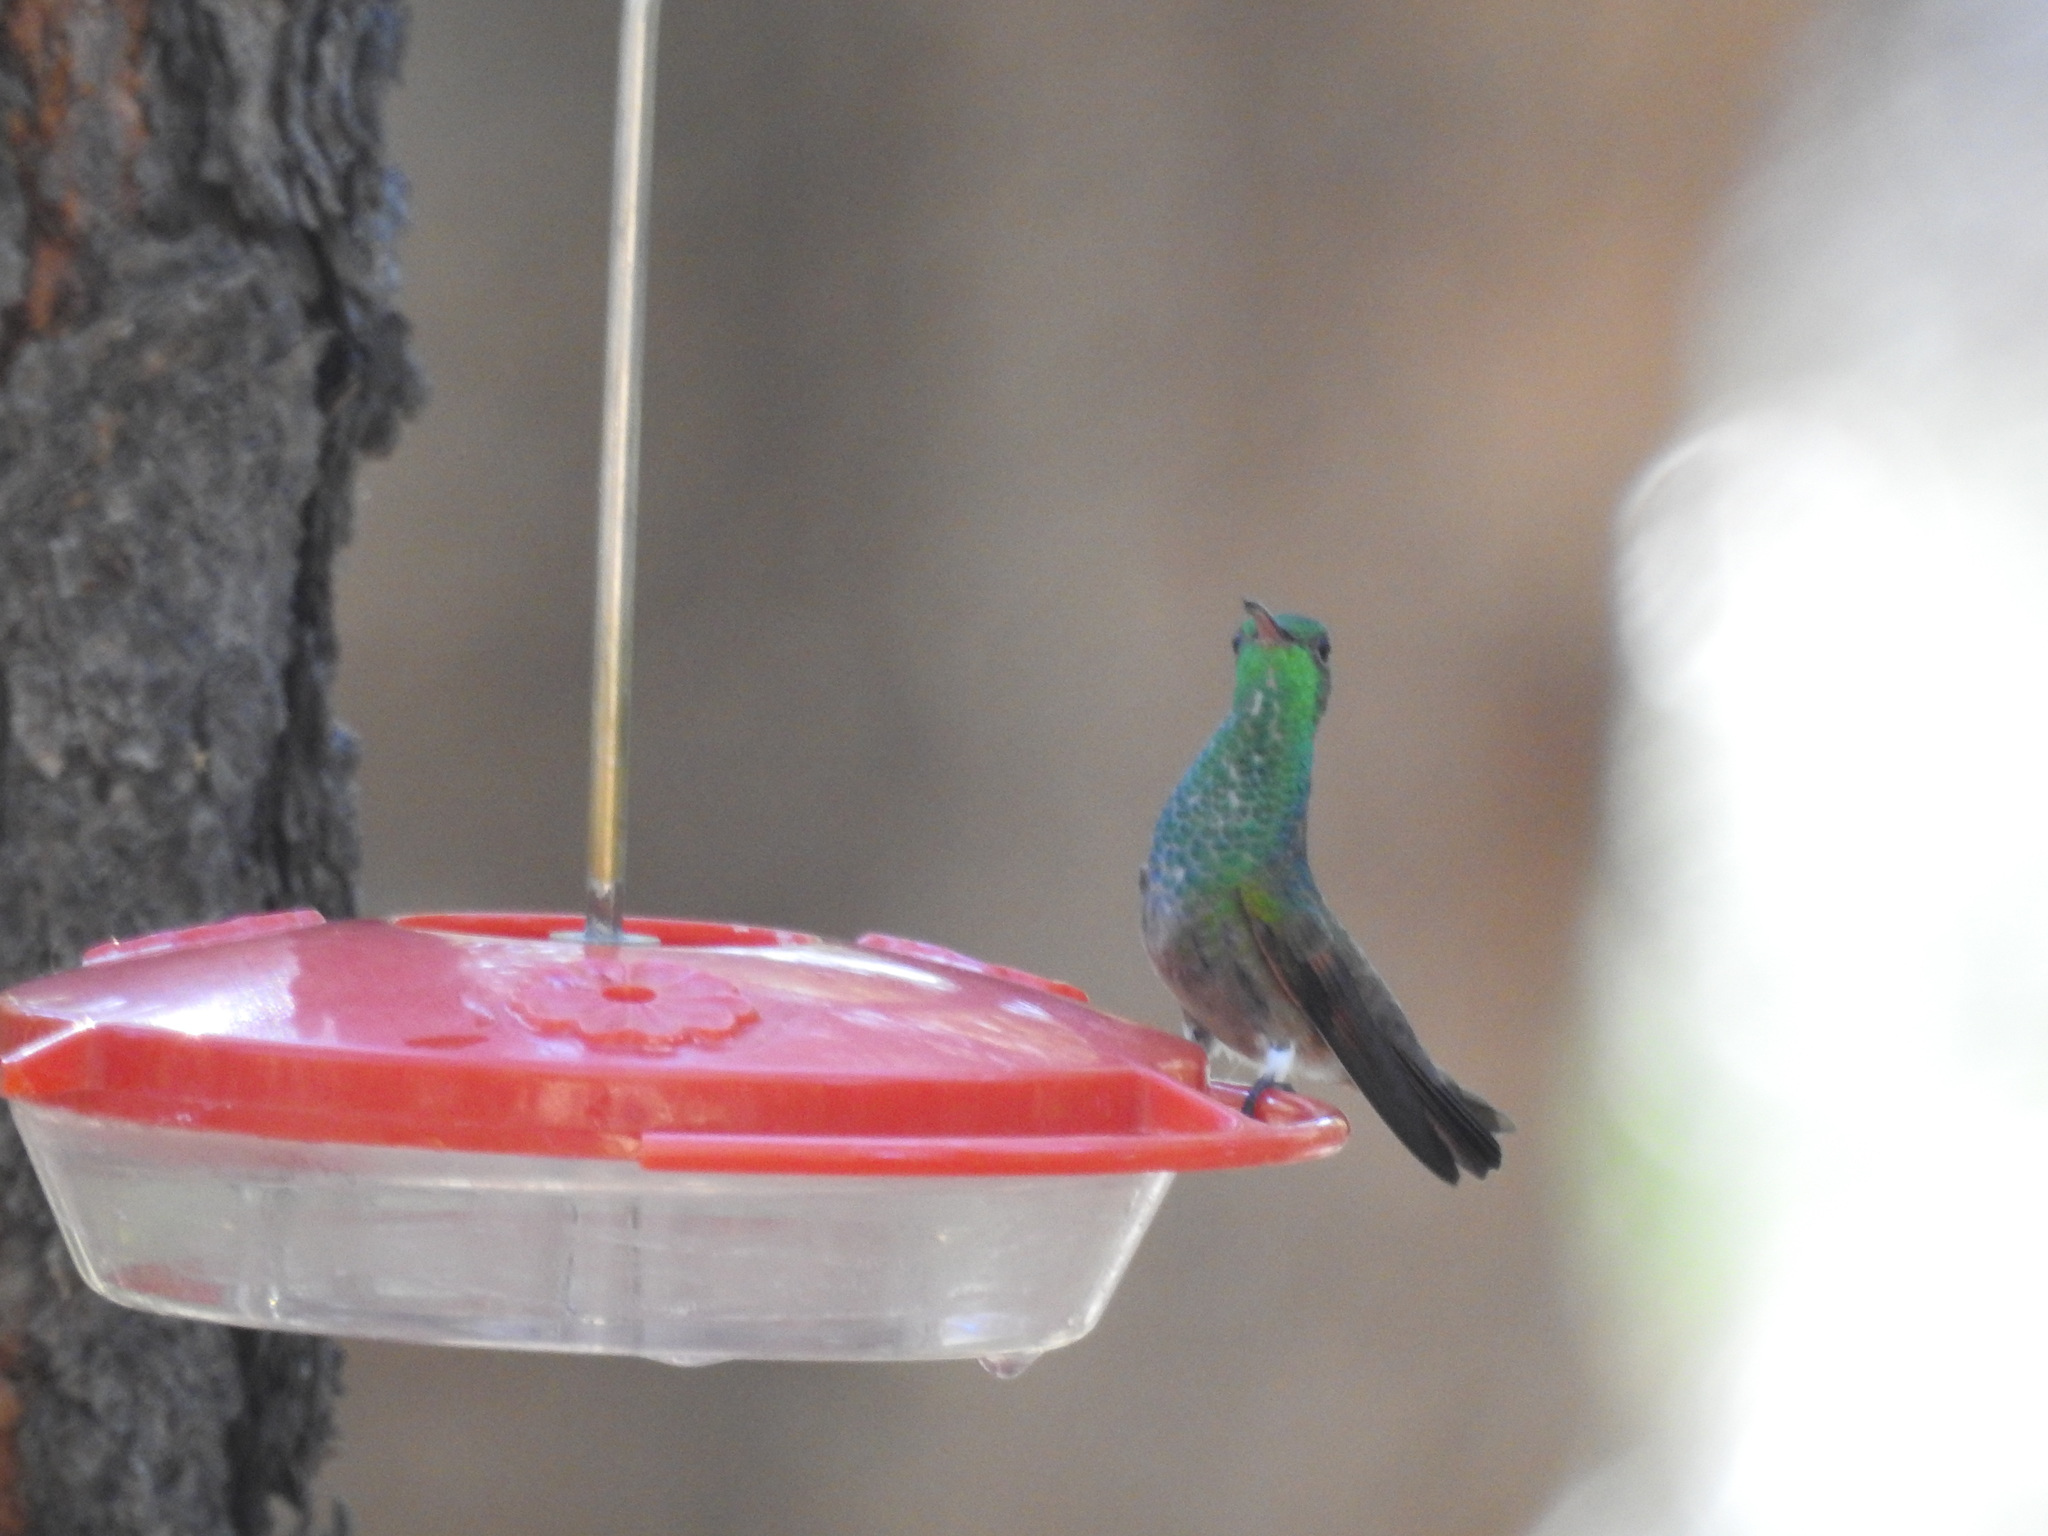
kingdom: Animalia
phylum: Chordata
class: Aves
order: Apodiformes
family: Trochilidae
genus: Saucerottia
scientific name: Saucerottia beryllina
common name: Berylline hummingbird
